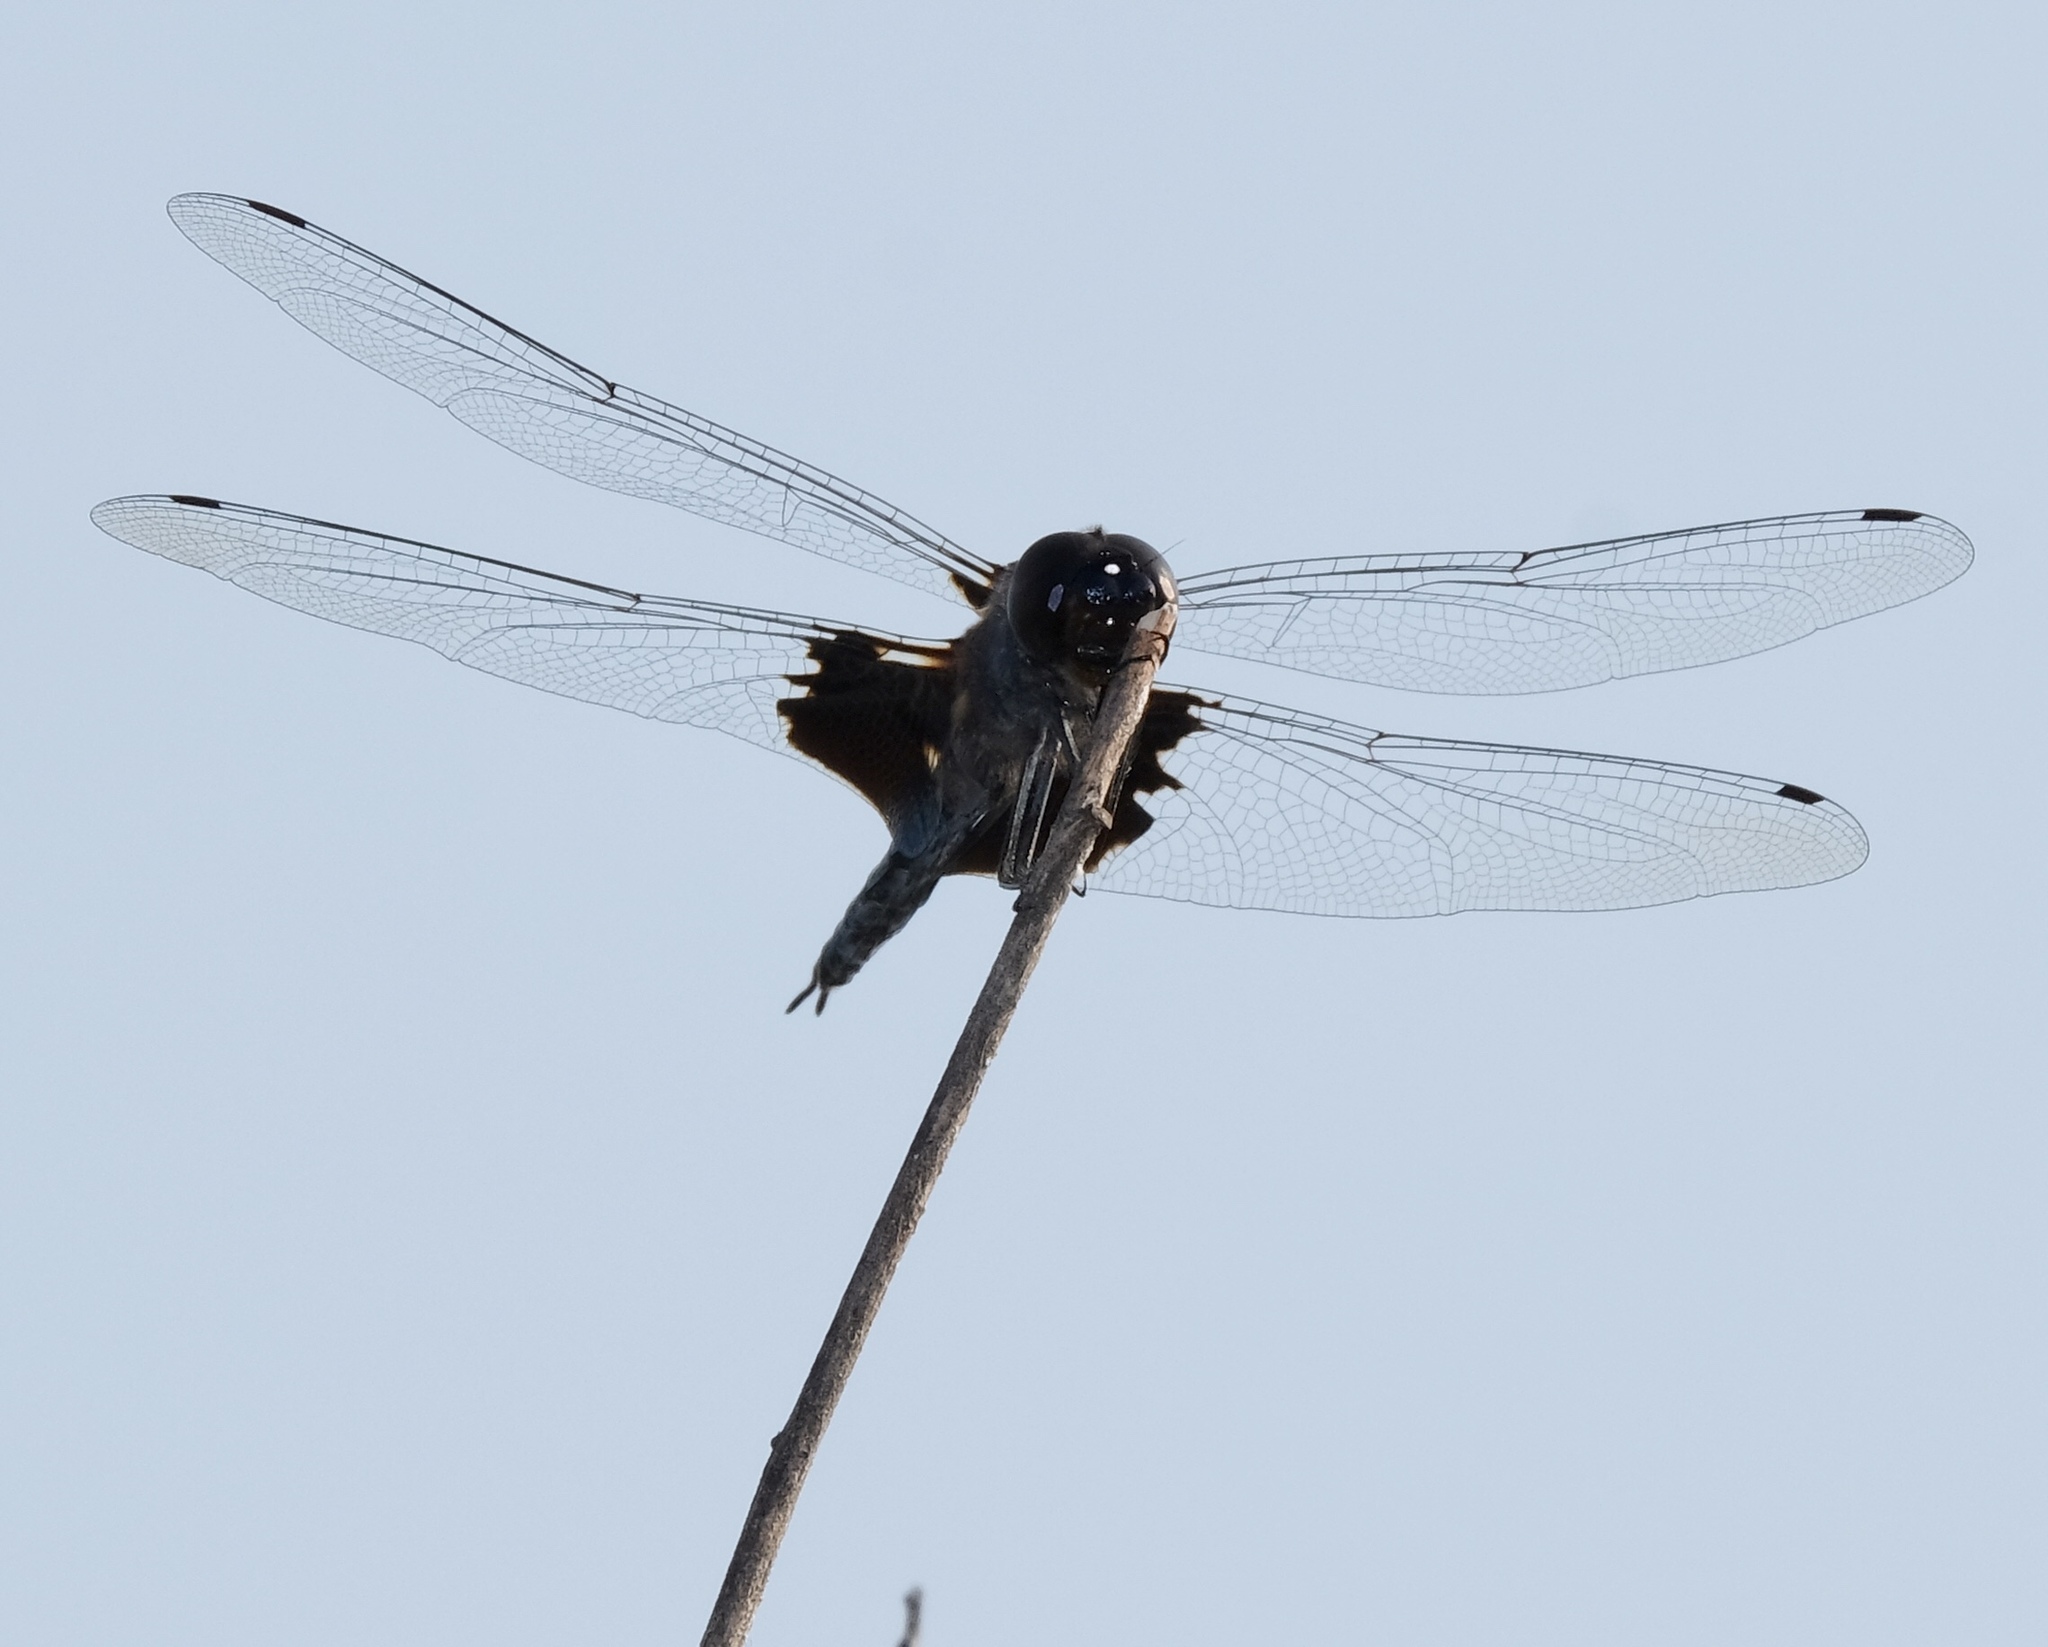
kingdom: Animalia
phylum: Arthropoda
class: Insecta
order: Odonata
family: Libellulidae
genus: Tramea
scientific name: Tramea lacerata
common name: Black saddlebags
